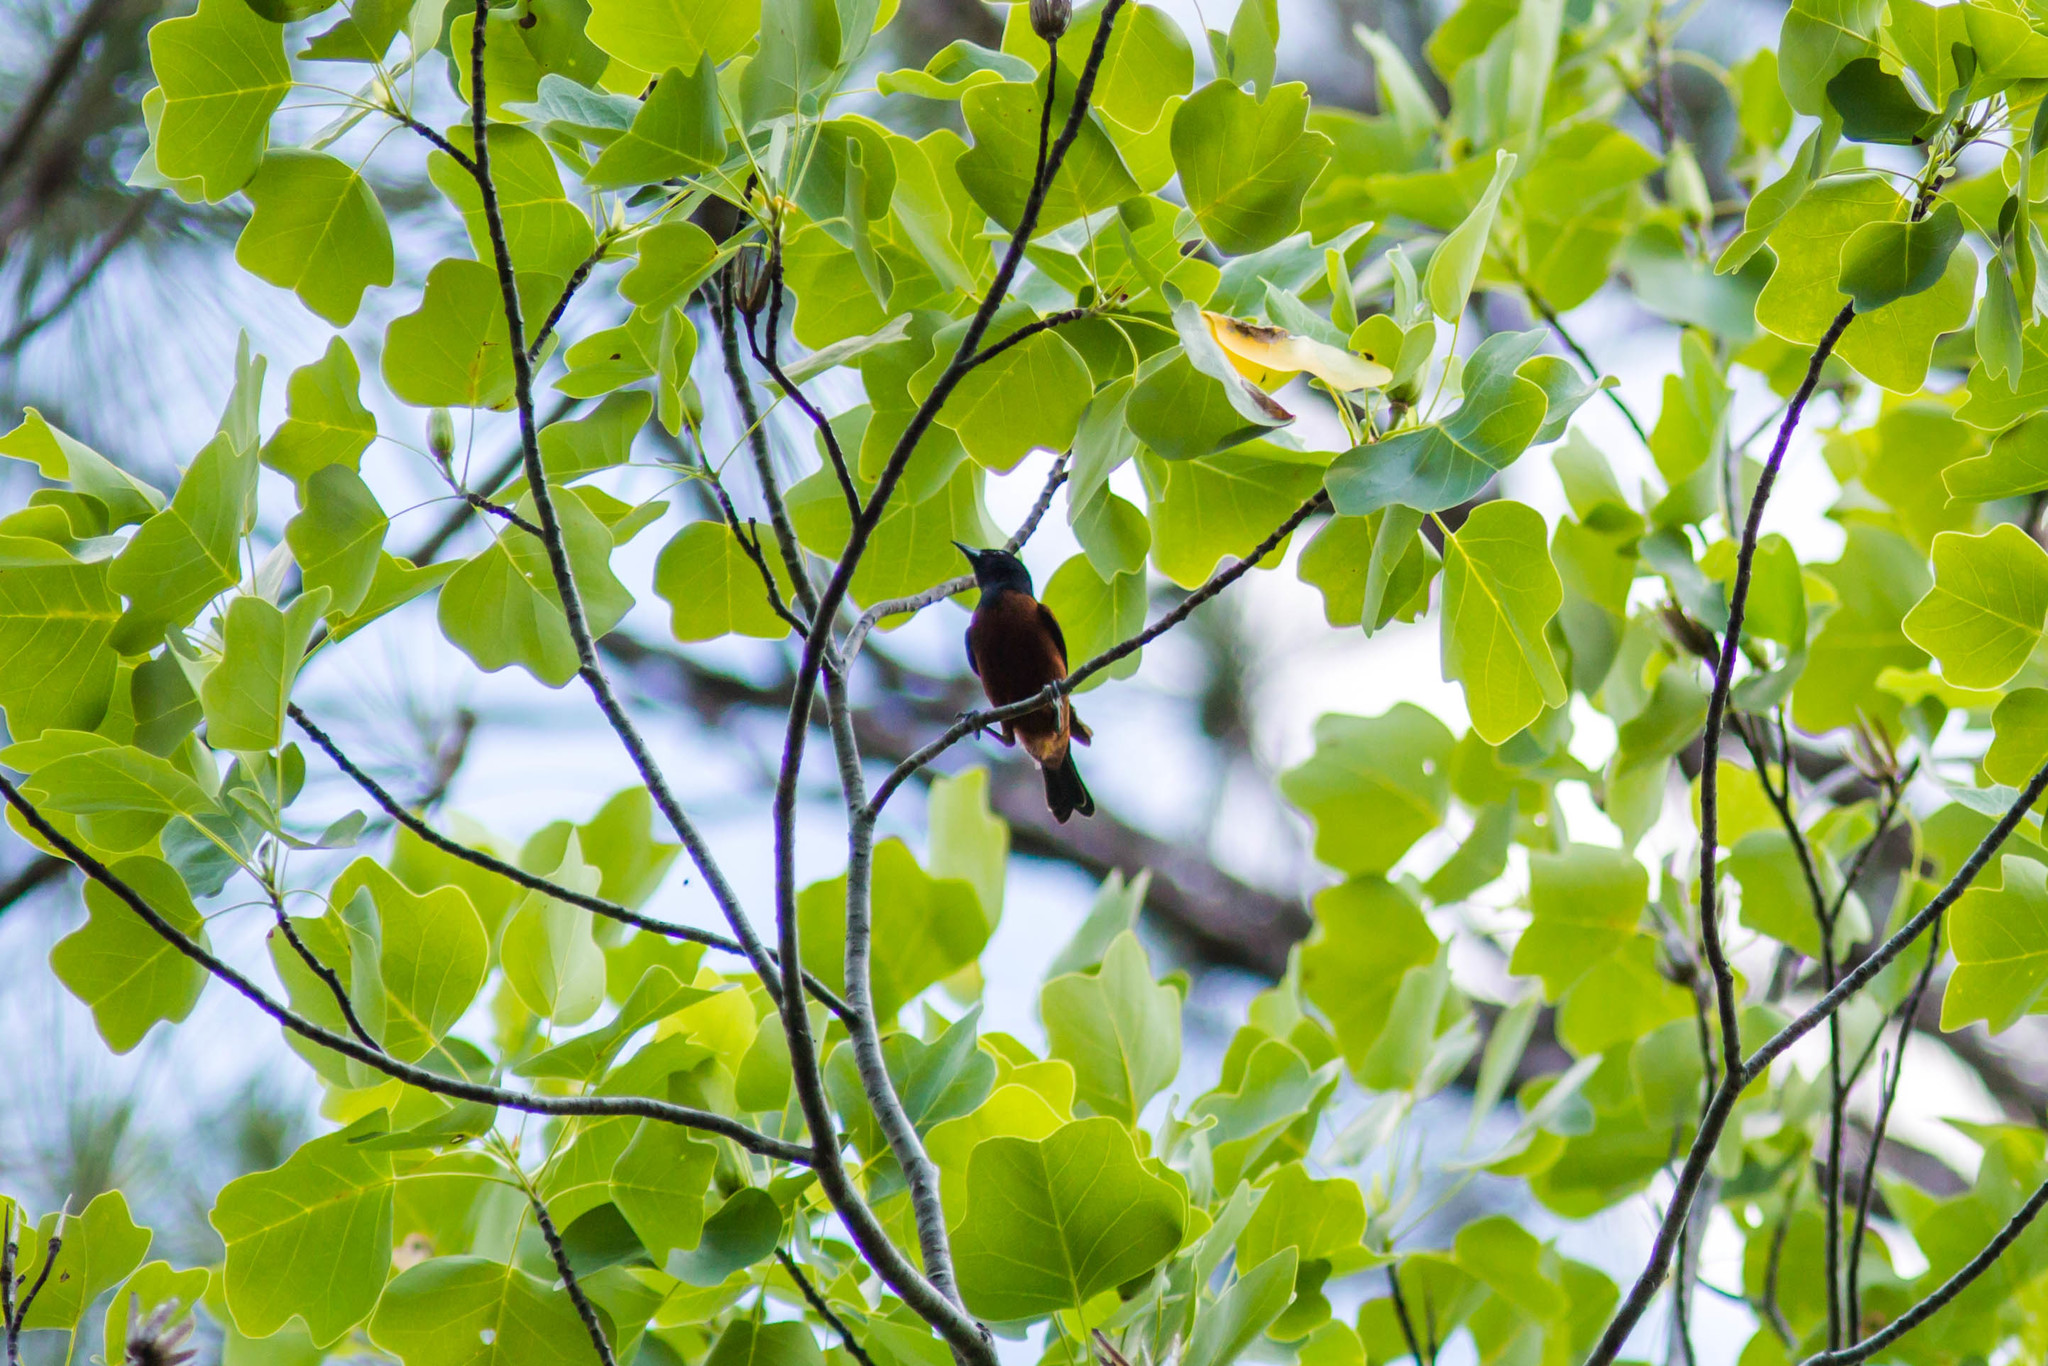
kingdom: Animalia
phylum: Chordata
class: Aves
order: Passeriformes
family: Icteridae
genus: Icterus
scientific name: Icterus spurius
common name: Orchard oriole
